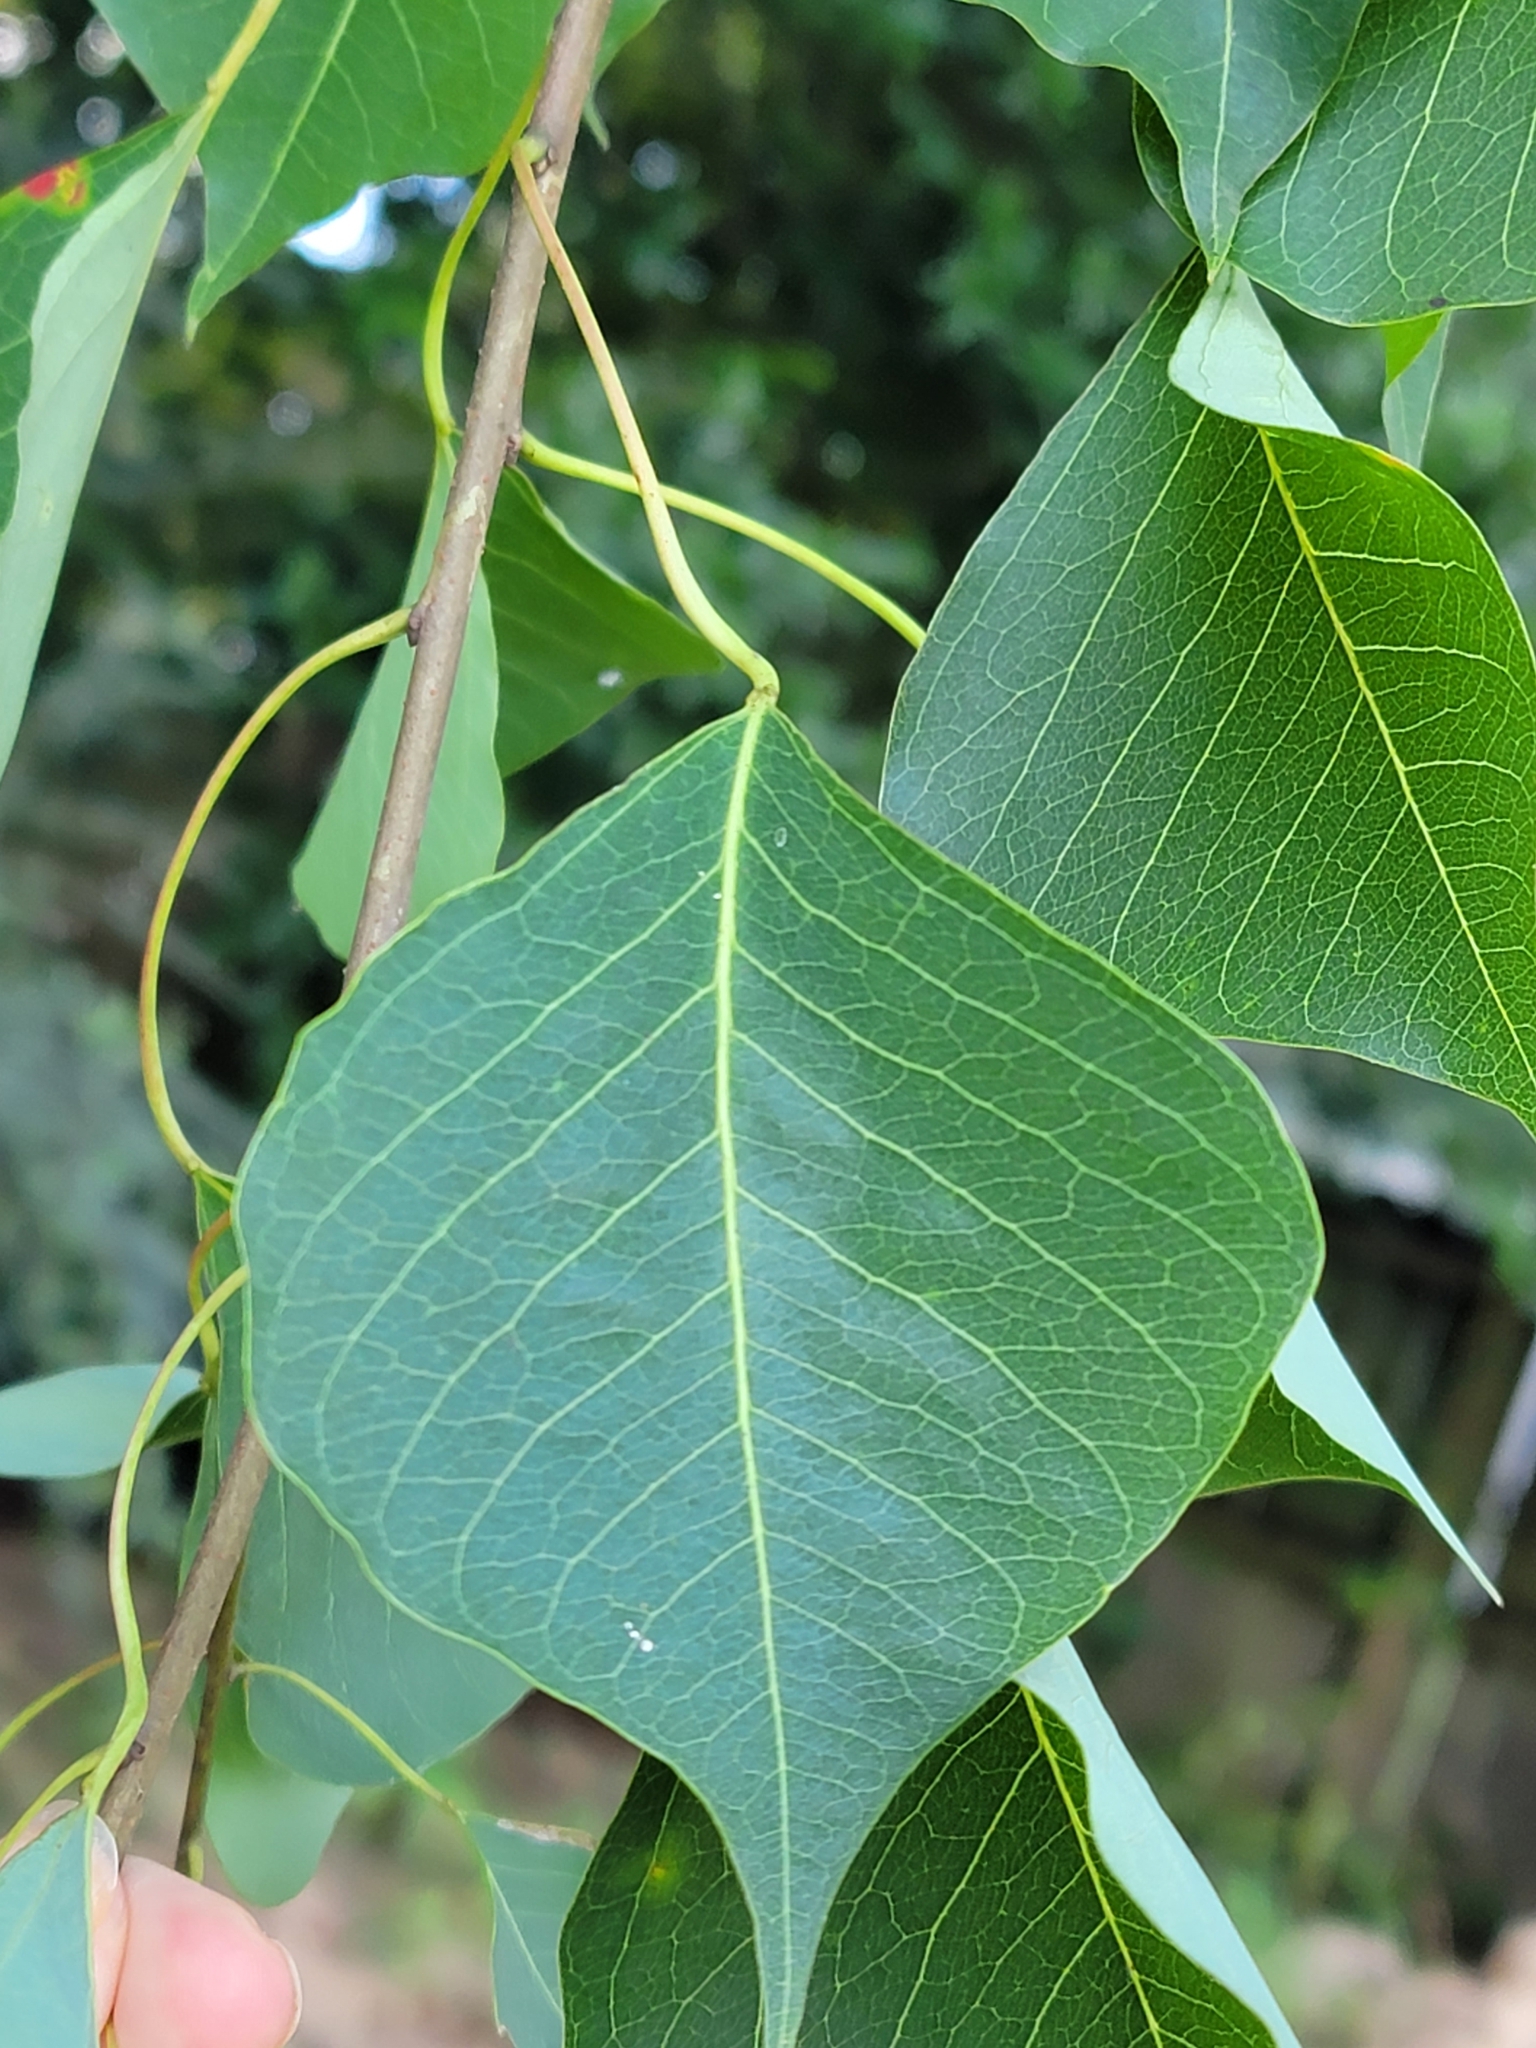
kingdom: Plantae
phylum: Tracheophyta
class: Magnoliopsida
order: Malpighiales
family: Euphorbiaceae
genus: Triadica
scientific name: Triadica sebifera
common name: Chinese tallow
